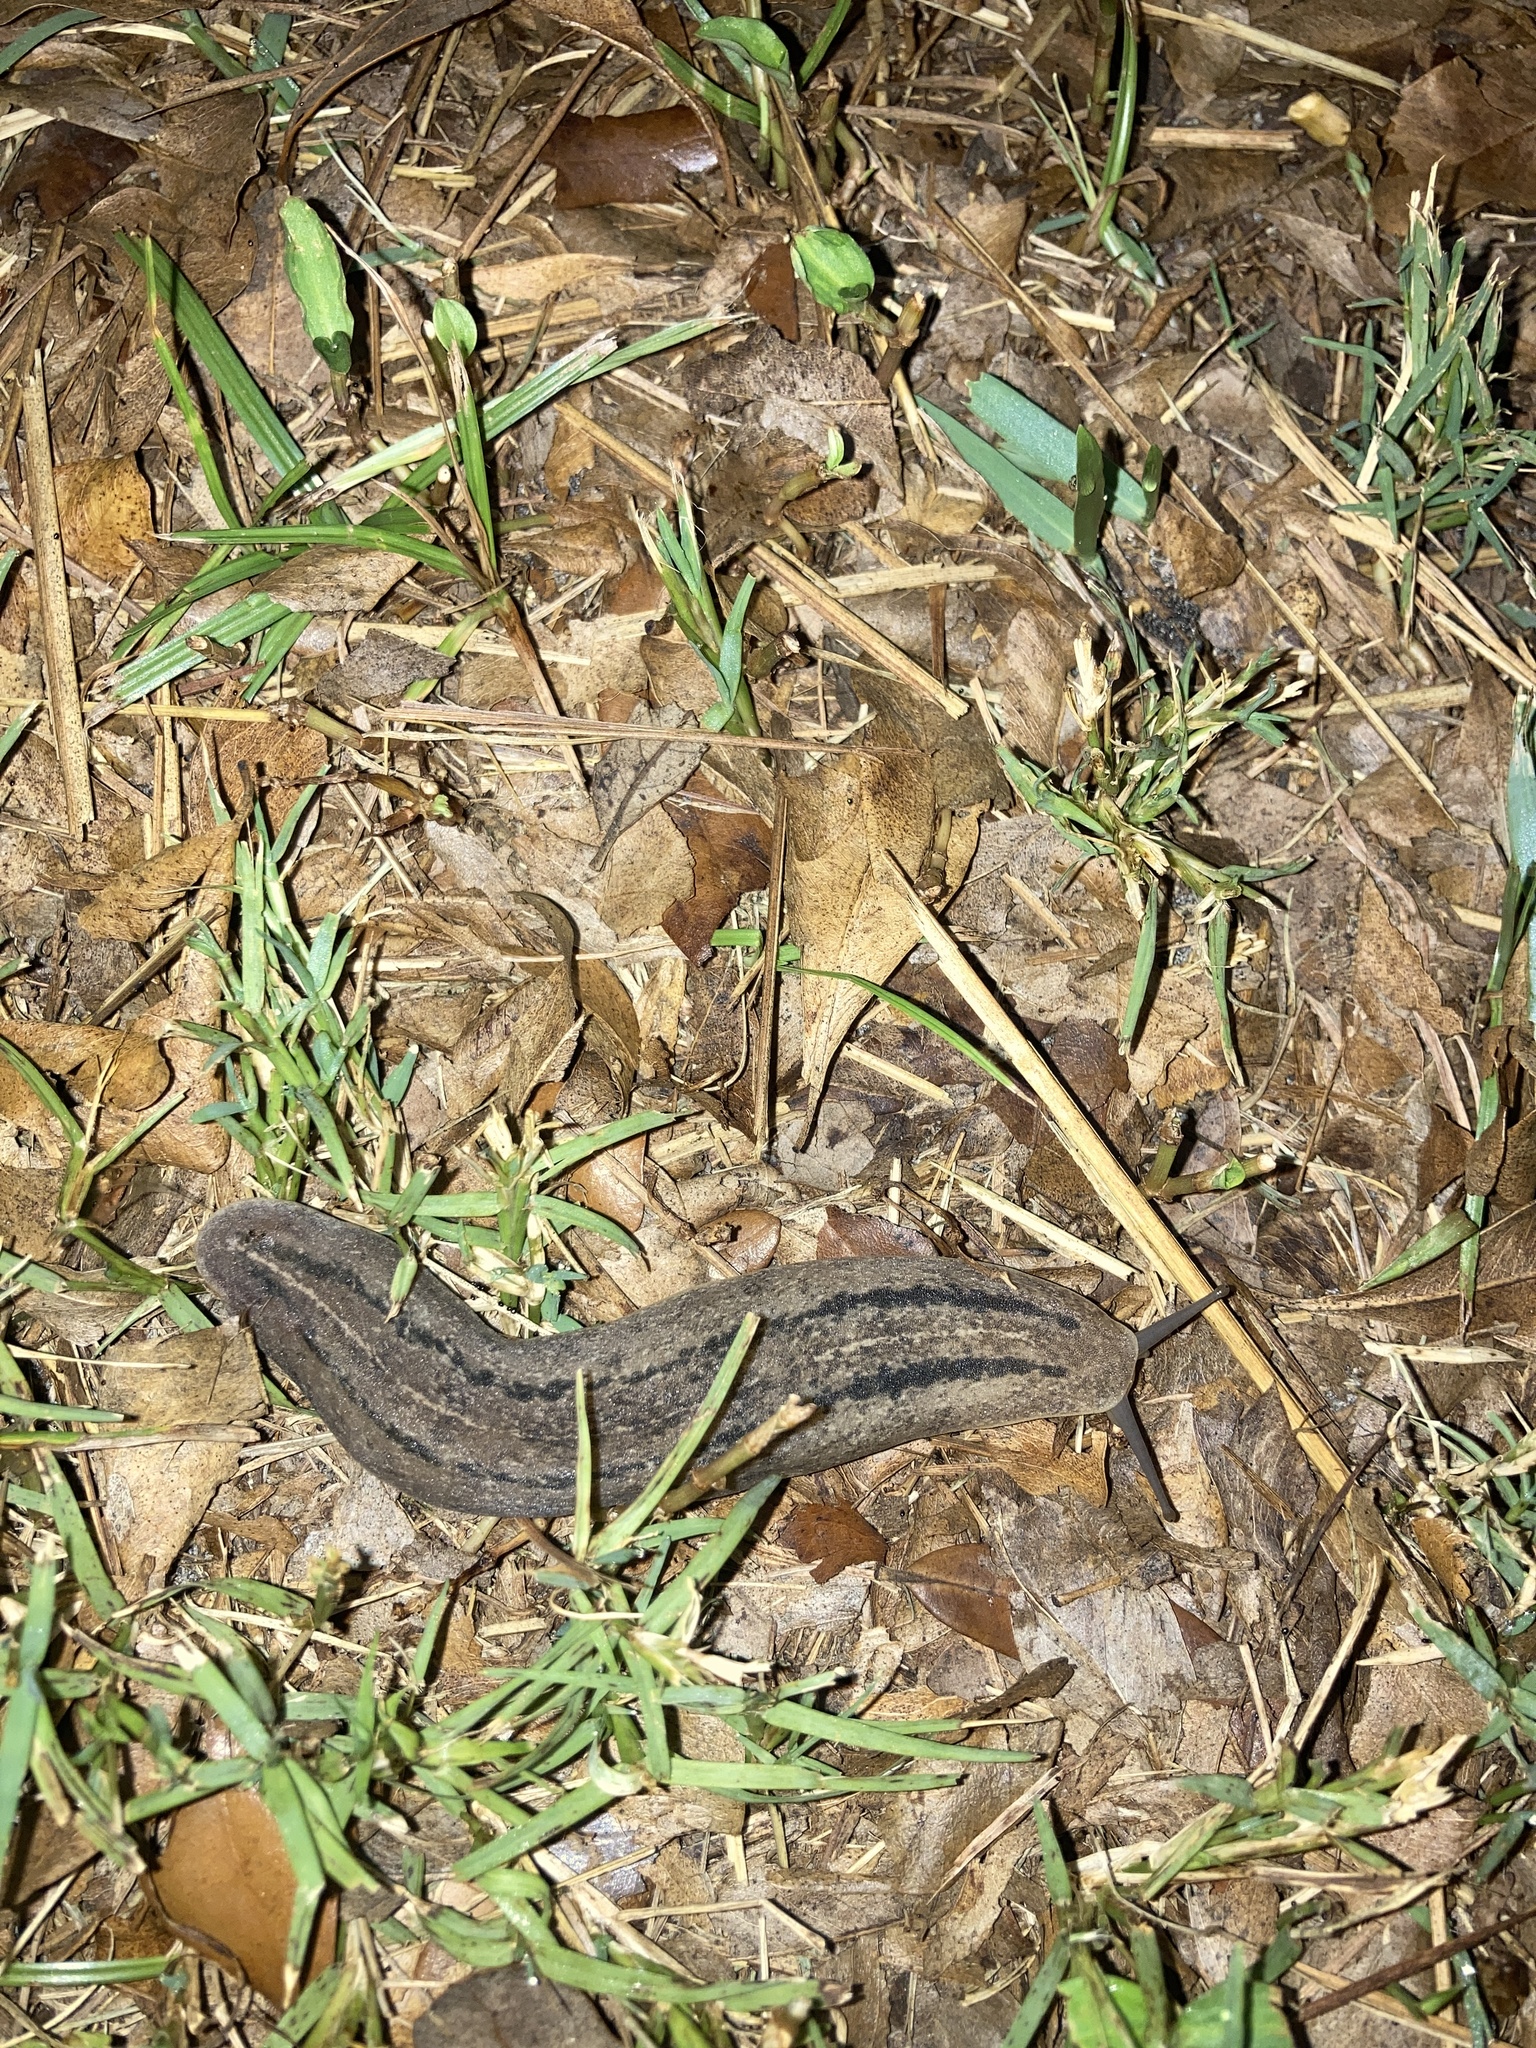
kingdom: Animalia
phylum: Mollusca
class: Gastropoda
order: Systellommatophora
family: Veronicellidae
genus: Leidyula
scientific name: Leidyula floridana
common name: Florida leatherleaf
